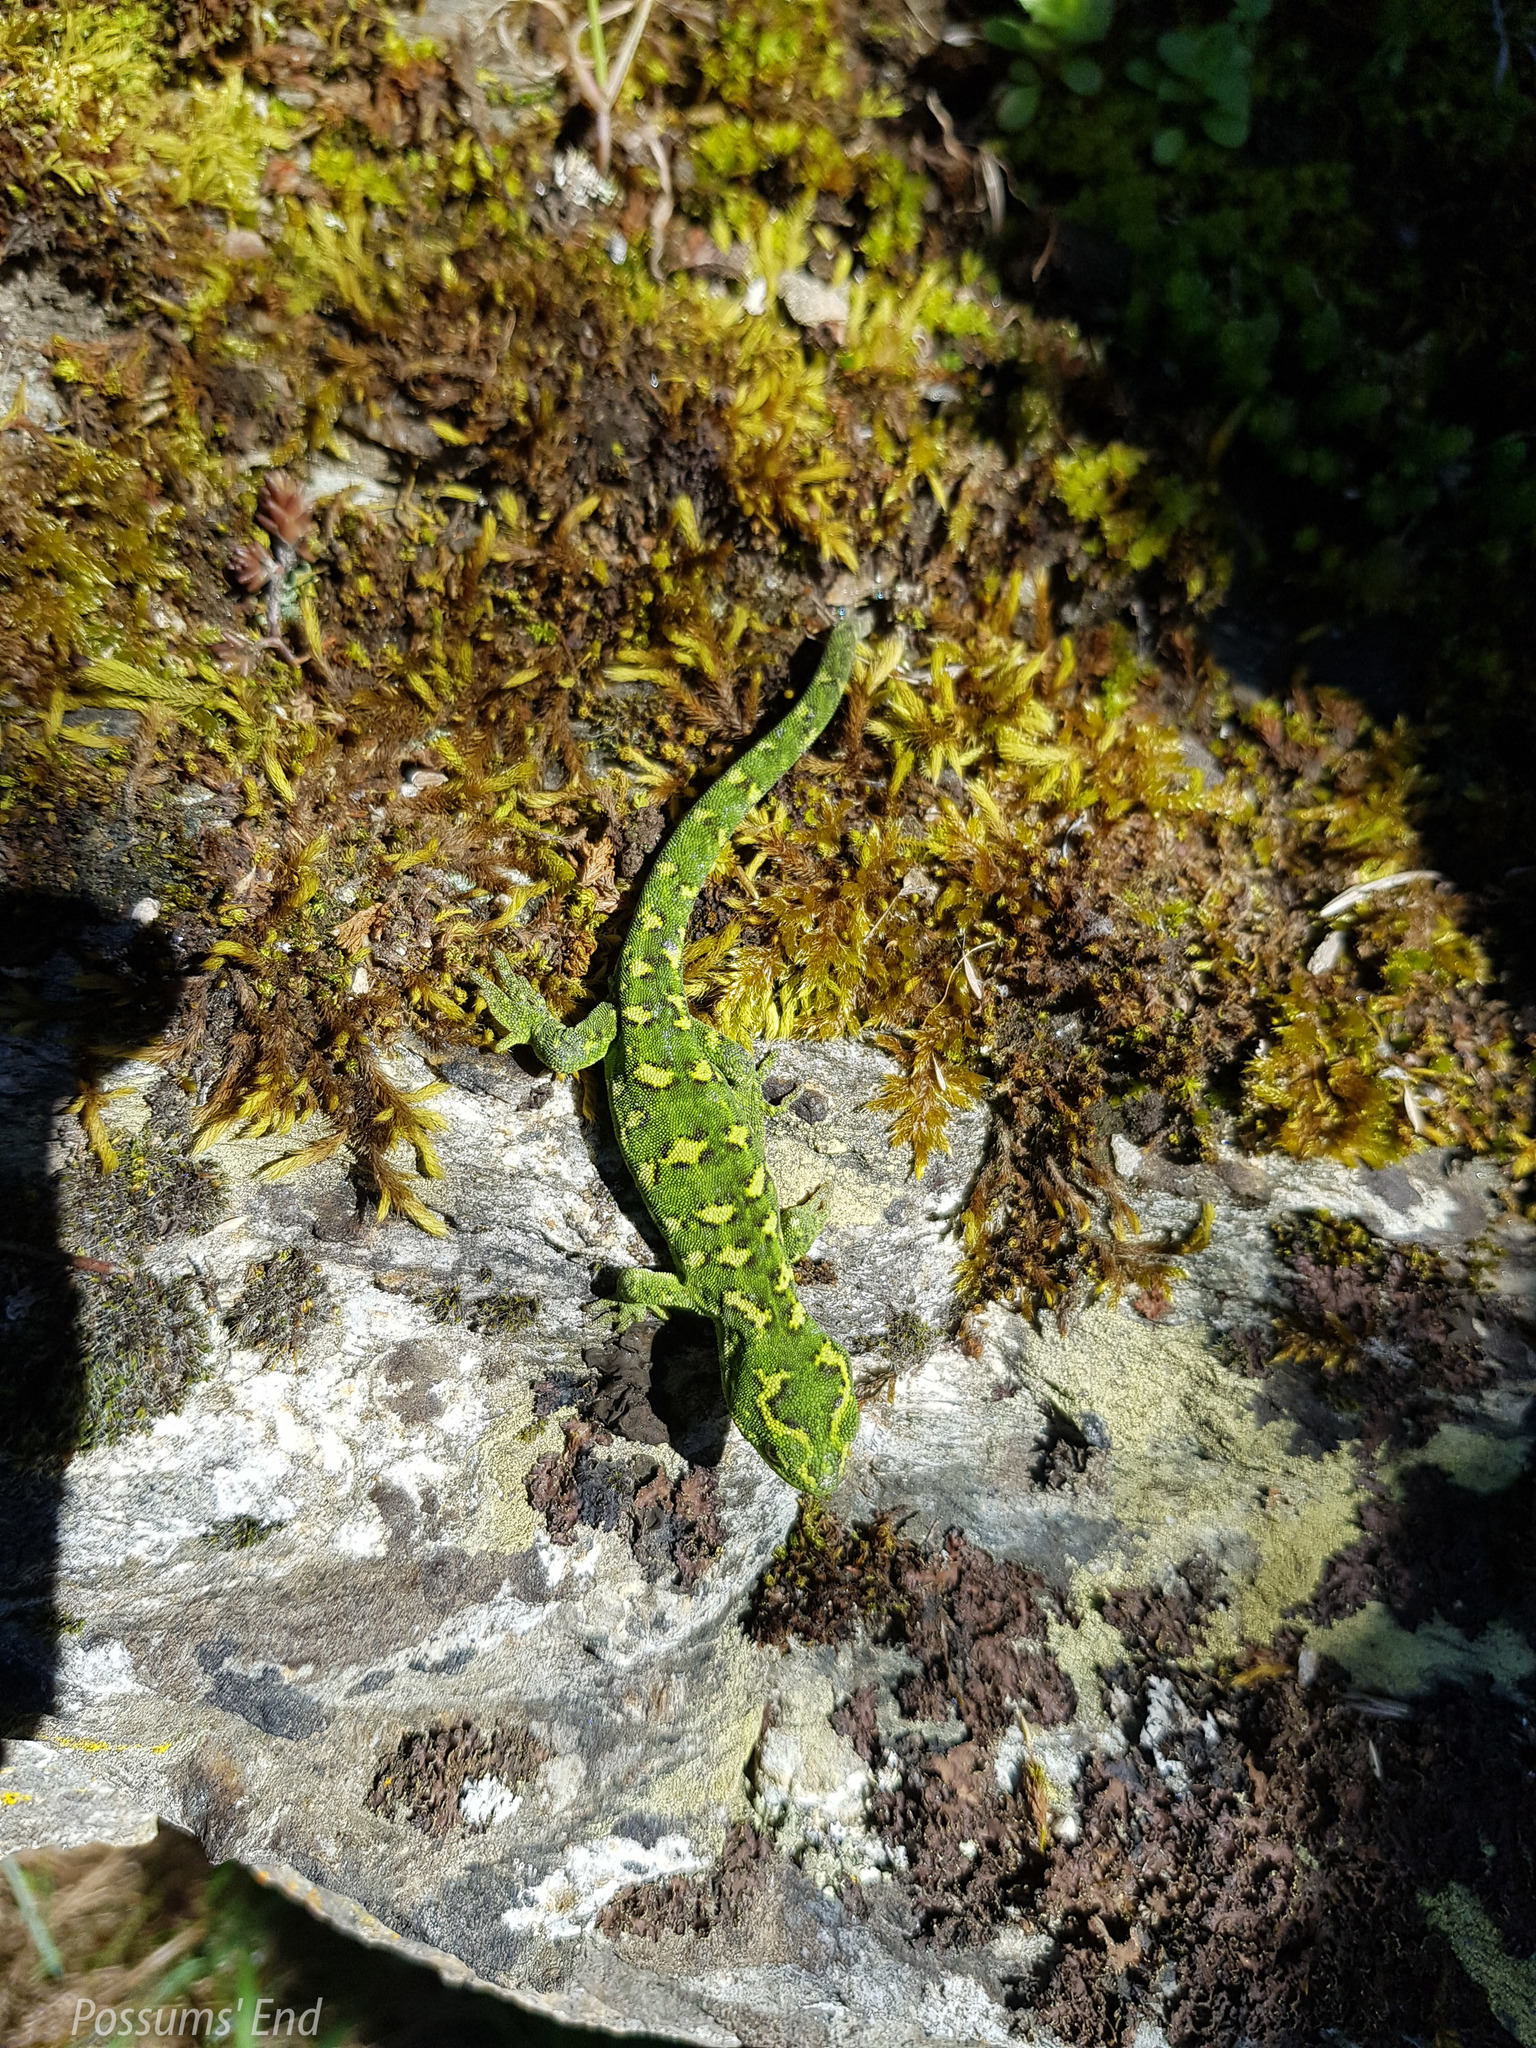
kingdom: Animalia
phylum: Chordata
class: Squamata
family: Diplodactylidae
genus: Naultinus
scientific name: Naultinus gemmeus
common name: Jewelled gecko
